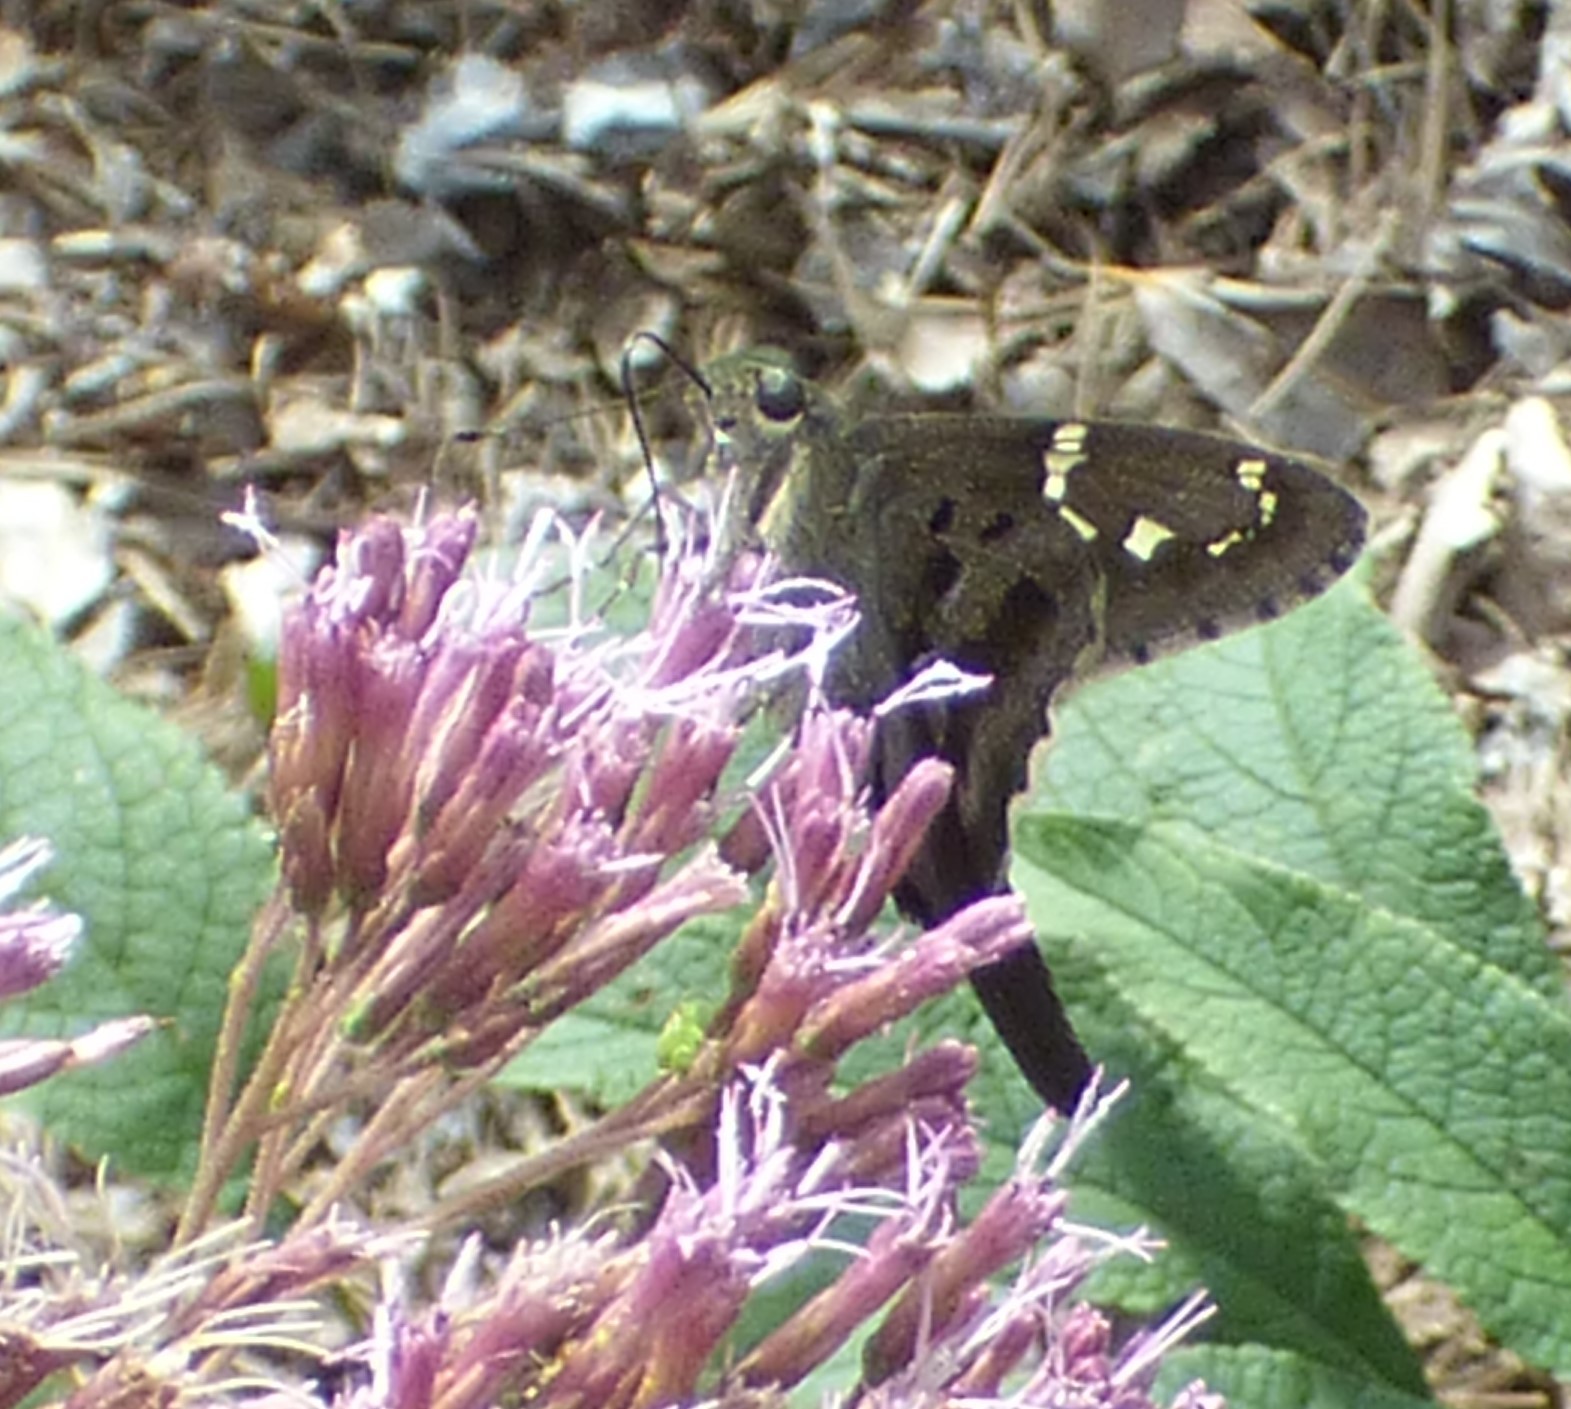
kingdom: Animalia
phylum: Arthropoda
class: Insecta
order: Lepidoptera
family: Hesperiidae
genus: Urbanus
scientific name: Urbanus proteus
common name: Long-tailed skipper
